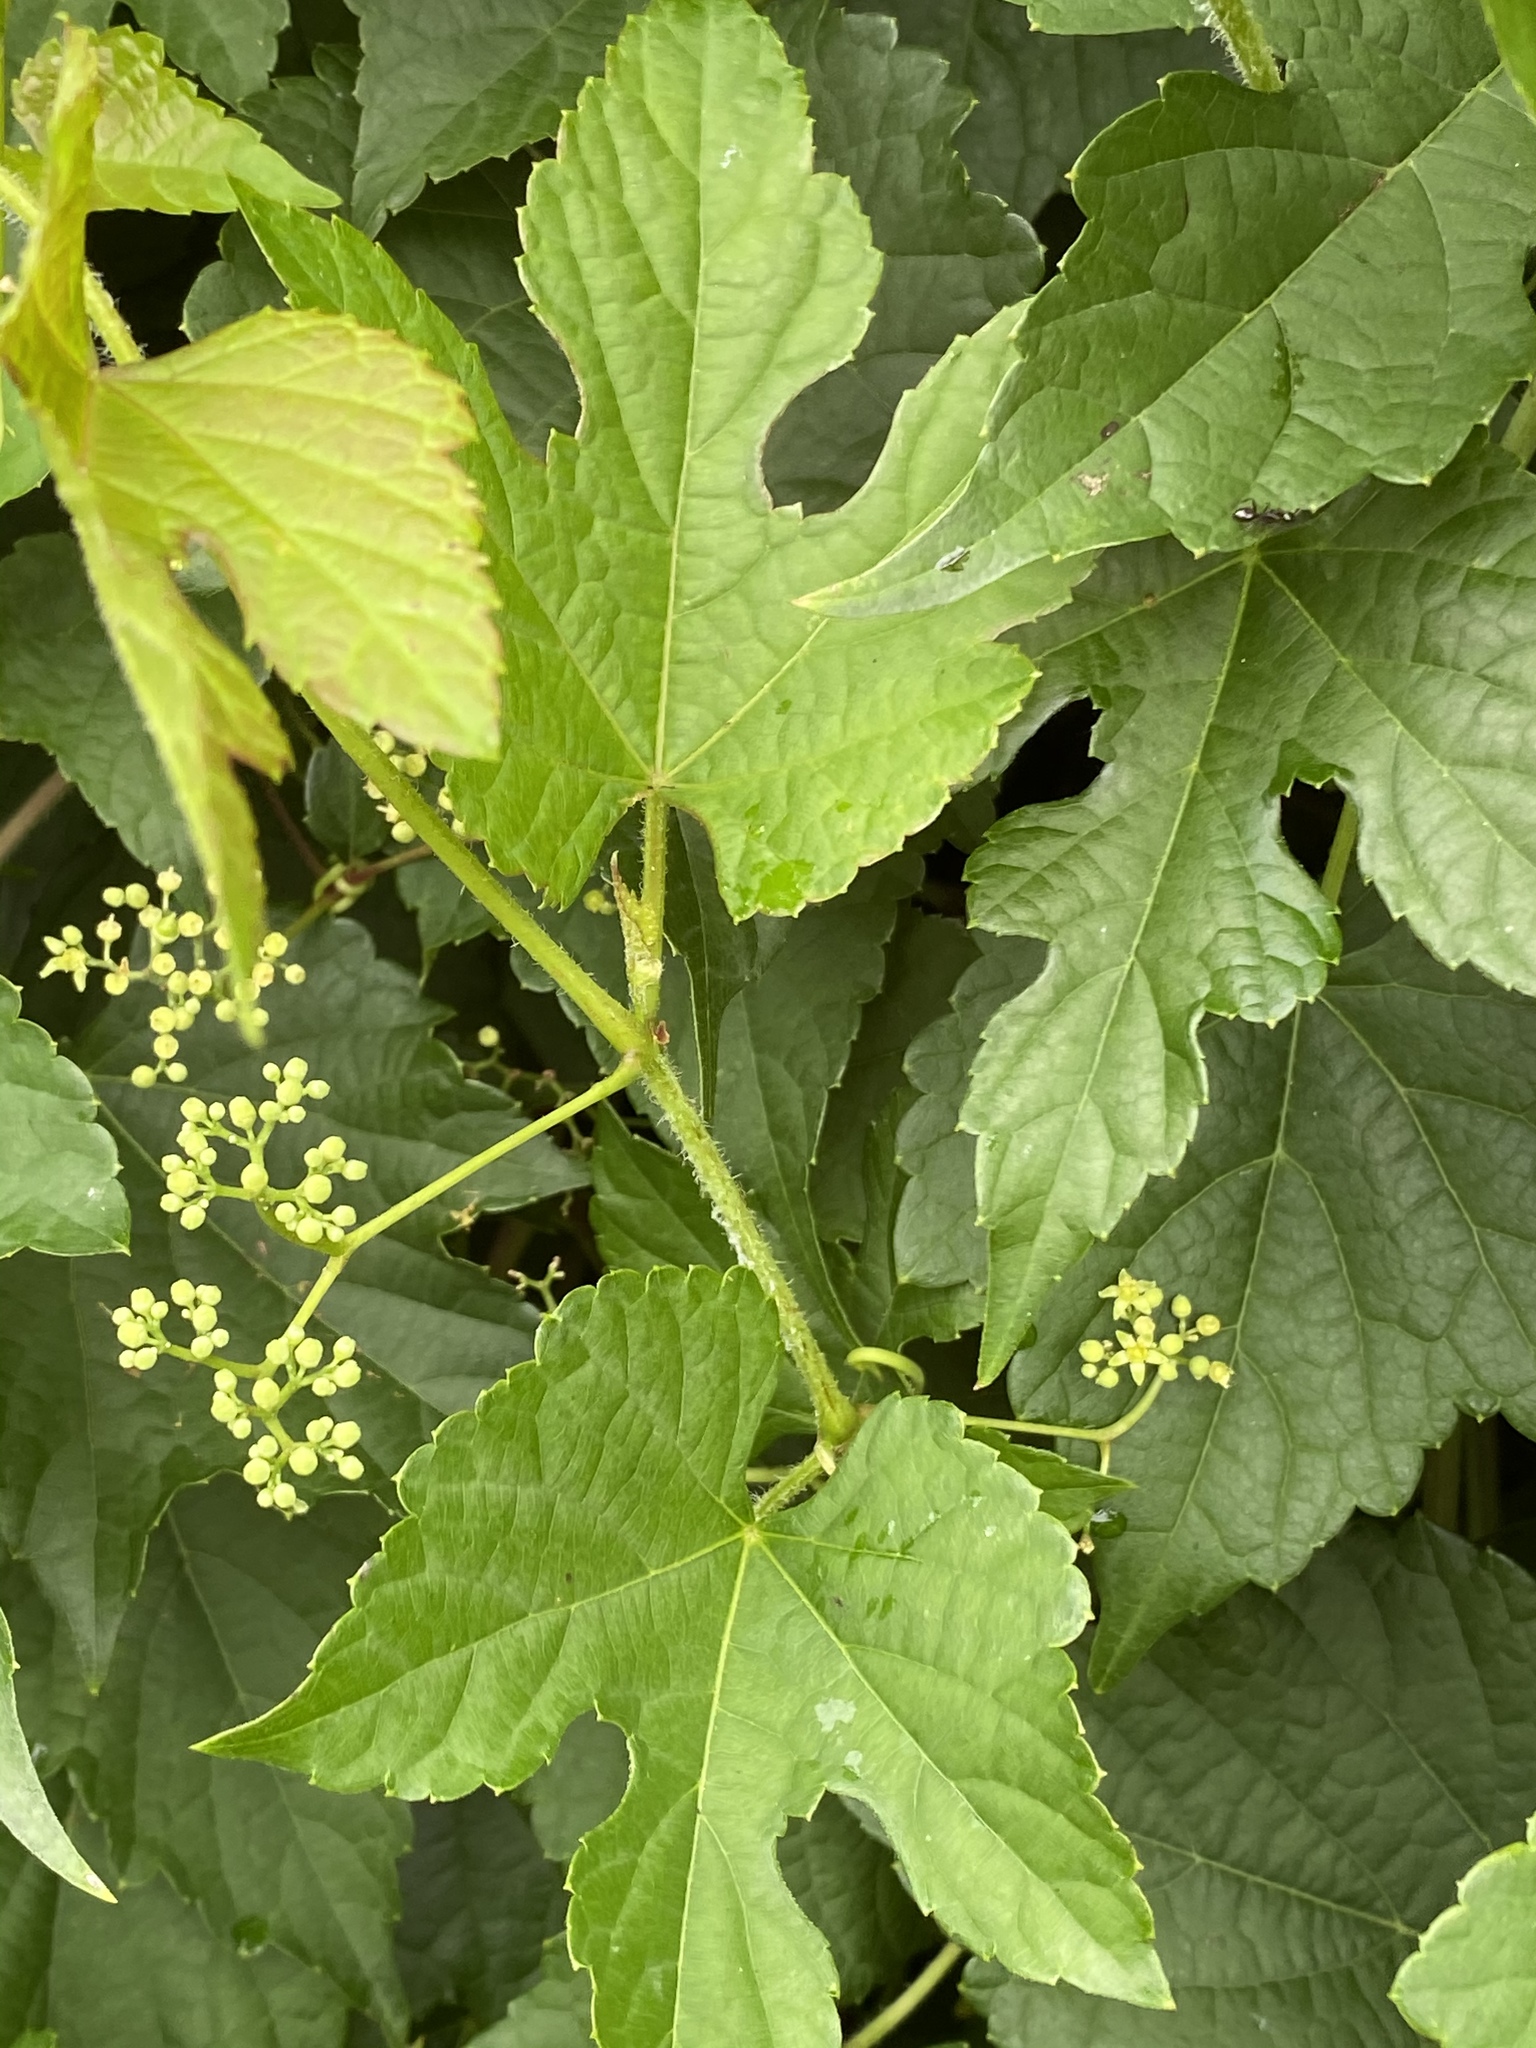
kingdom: Plantae
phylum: Tracheophyta
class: Magnoliopsida
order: Vitales
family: Vitaceae
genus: Ampelopsis
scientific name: Ampelopsis glandulosa
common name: Amur peppervine
